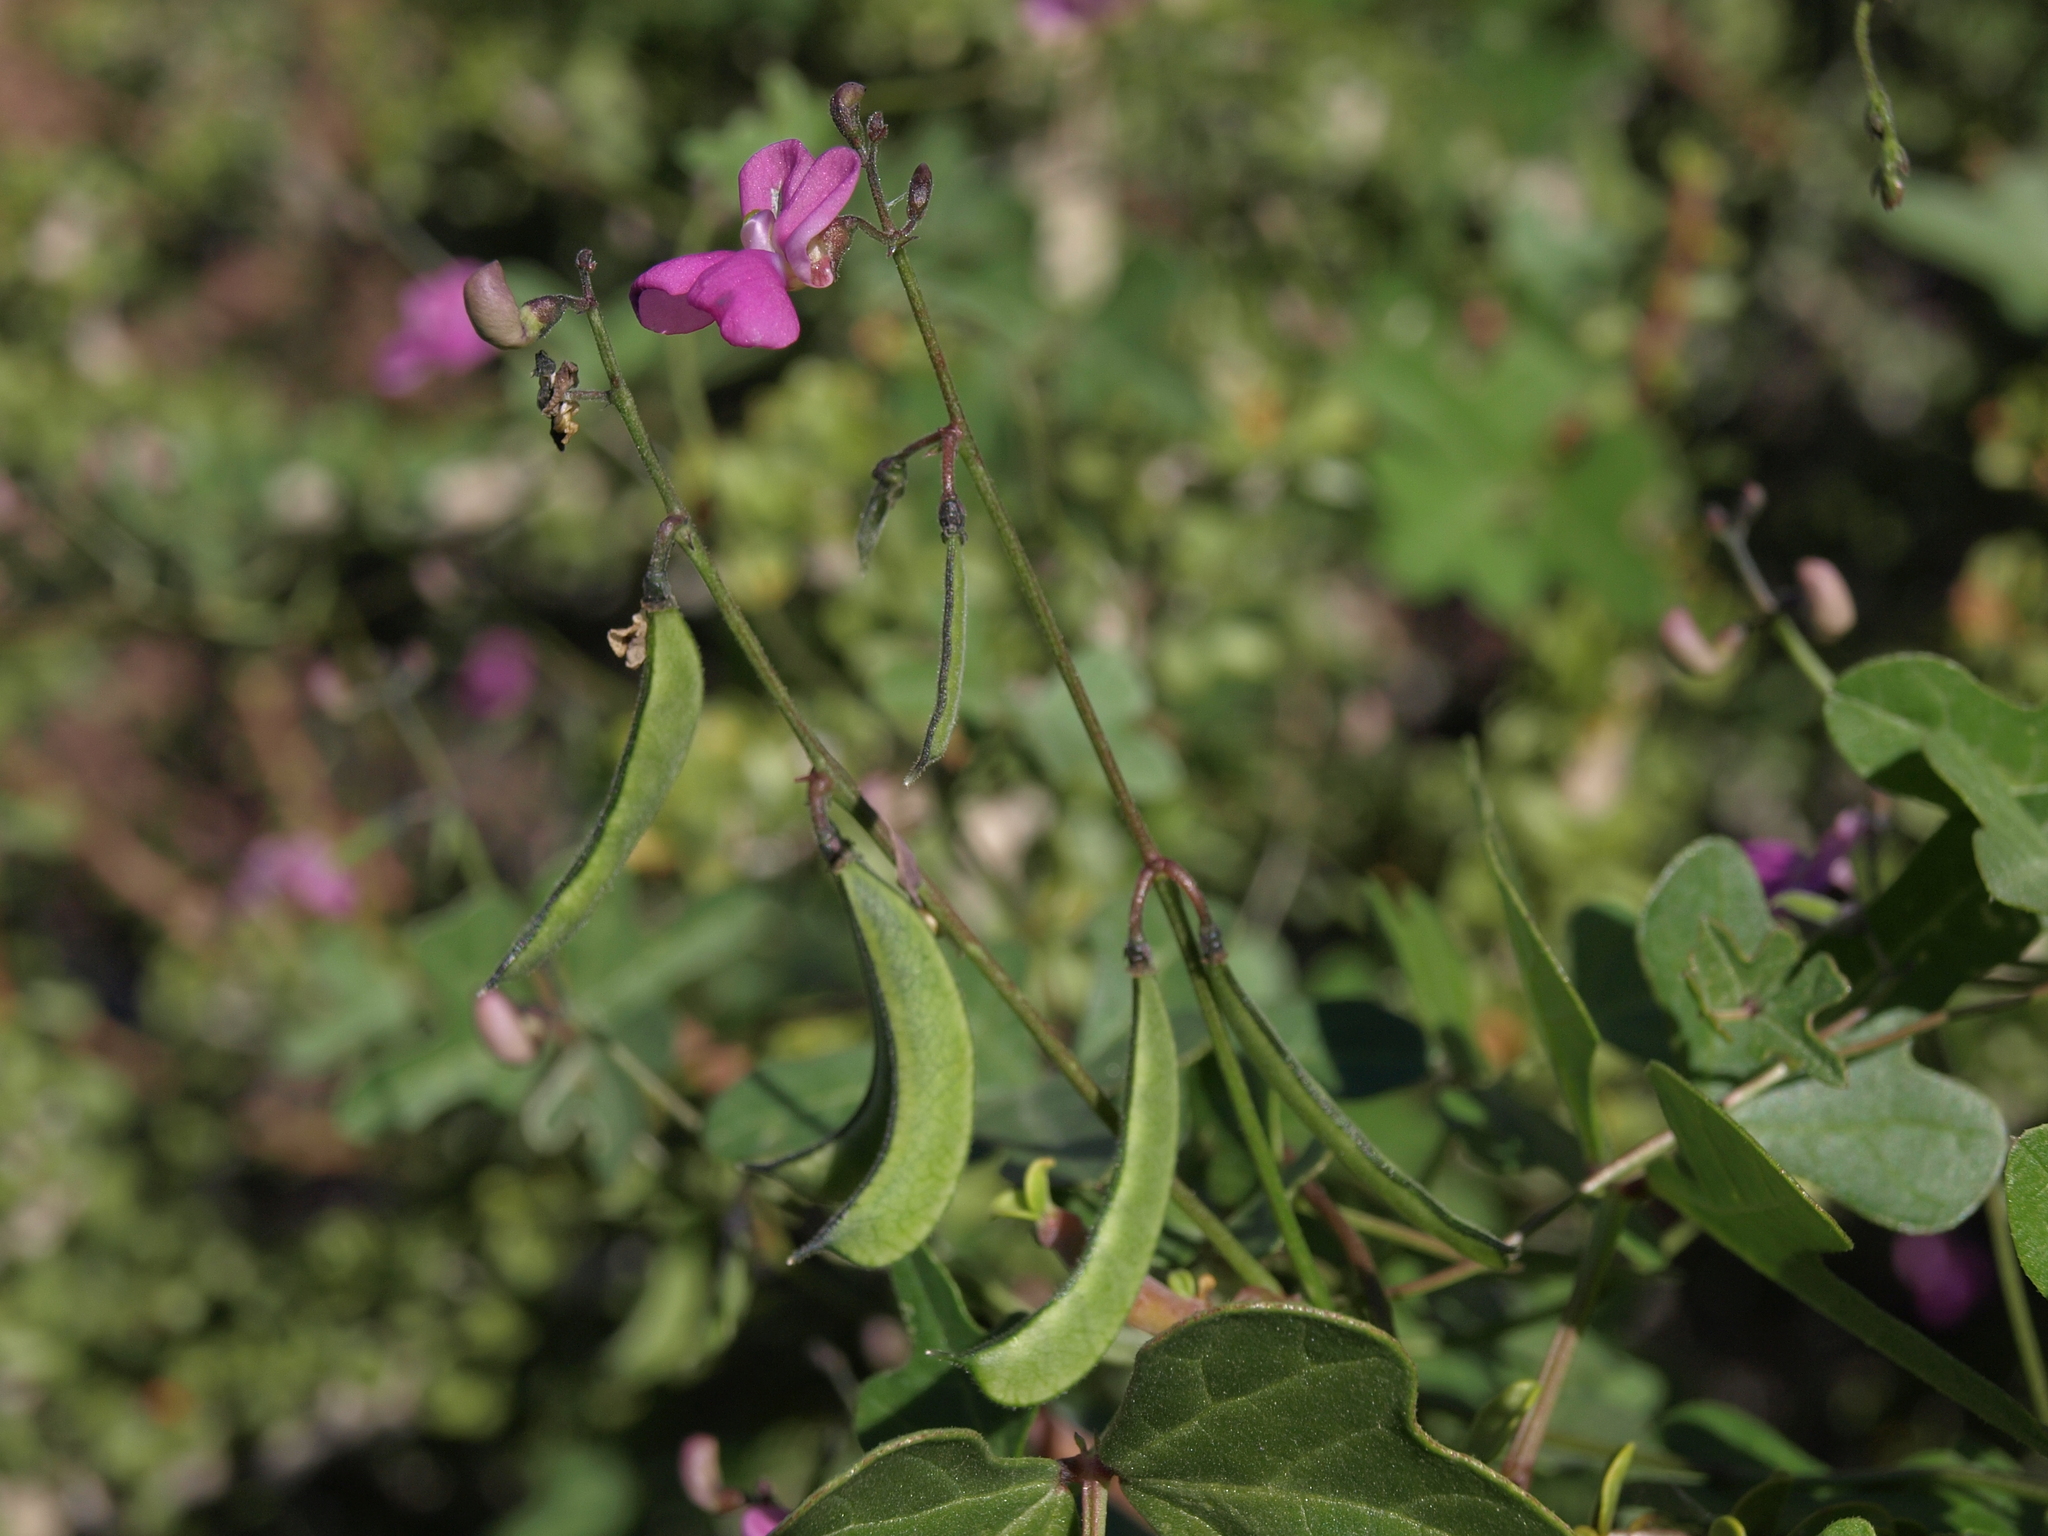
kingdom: Plantae
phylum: Tracheophyta
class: Magnoliopsida
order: Fabales
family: Fabaceae
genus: Phaseolus
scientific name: Phaseolus filiformis
